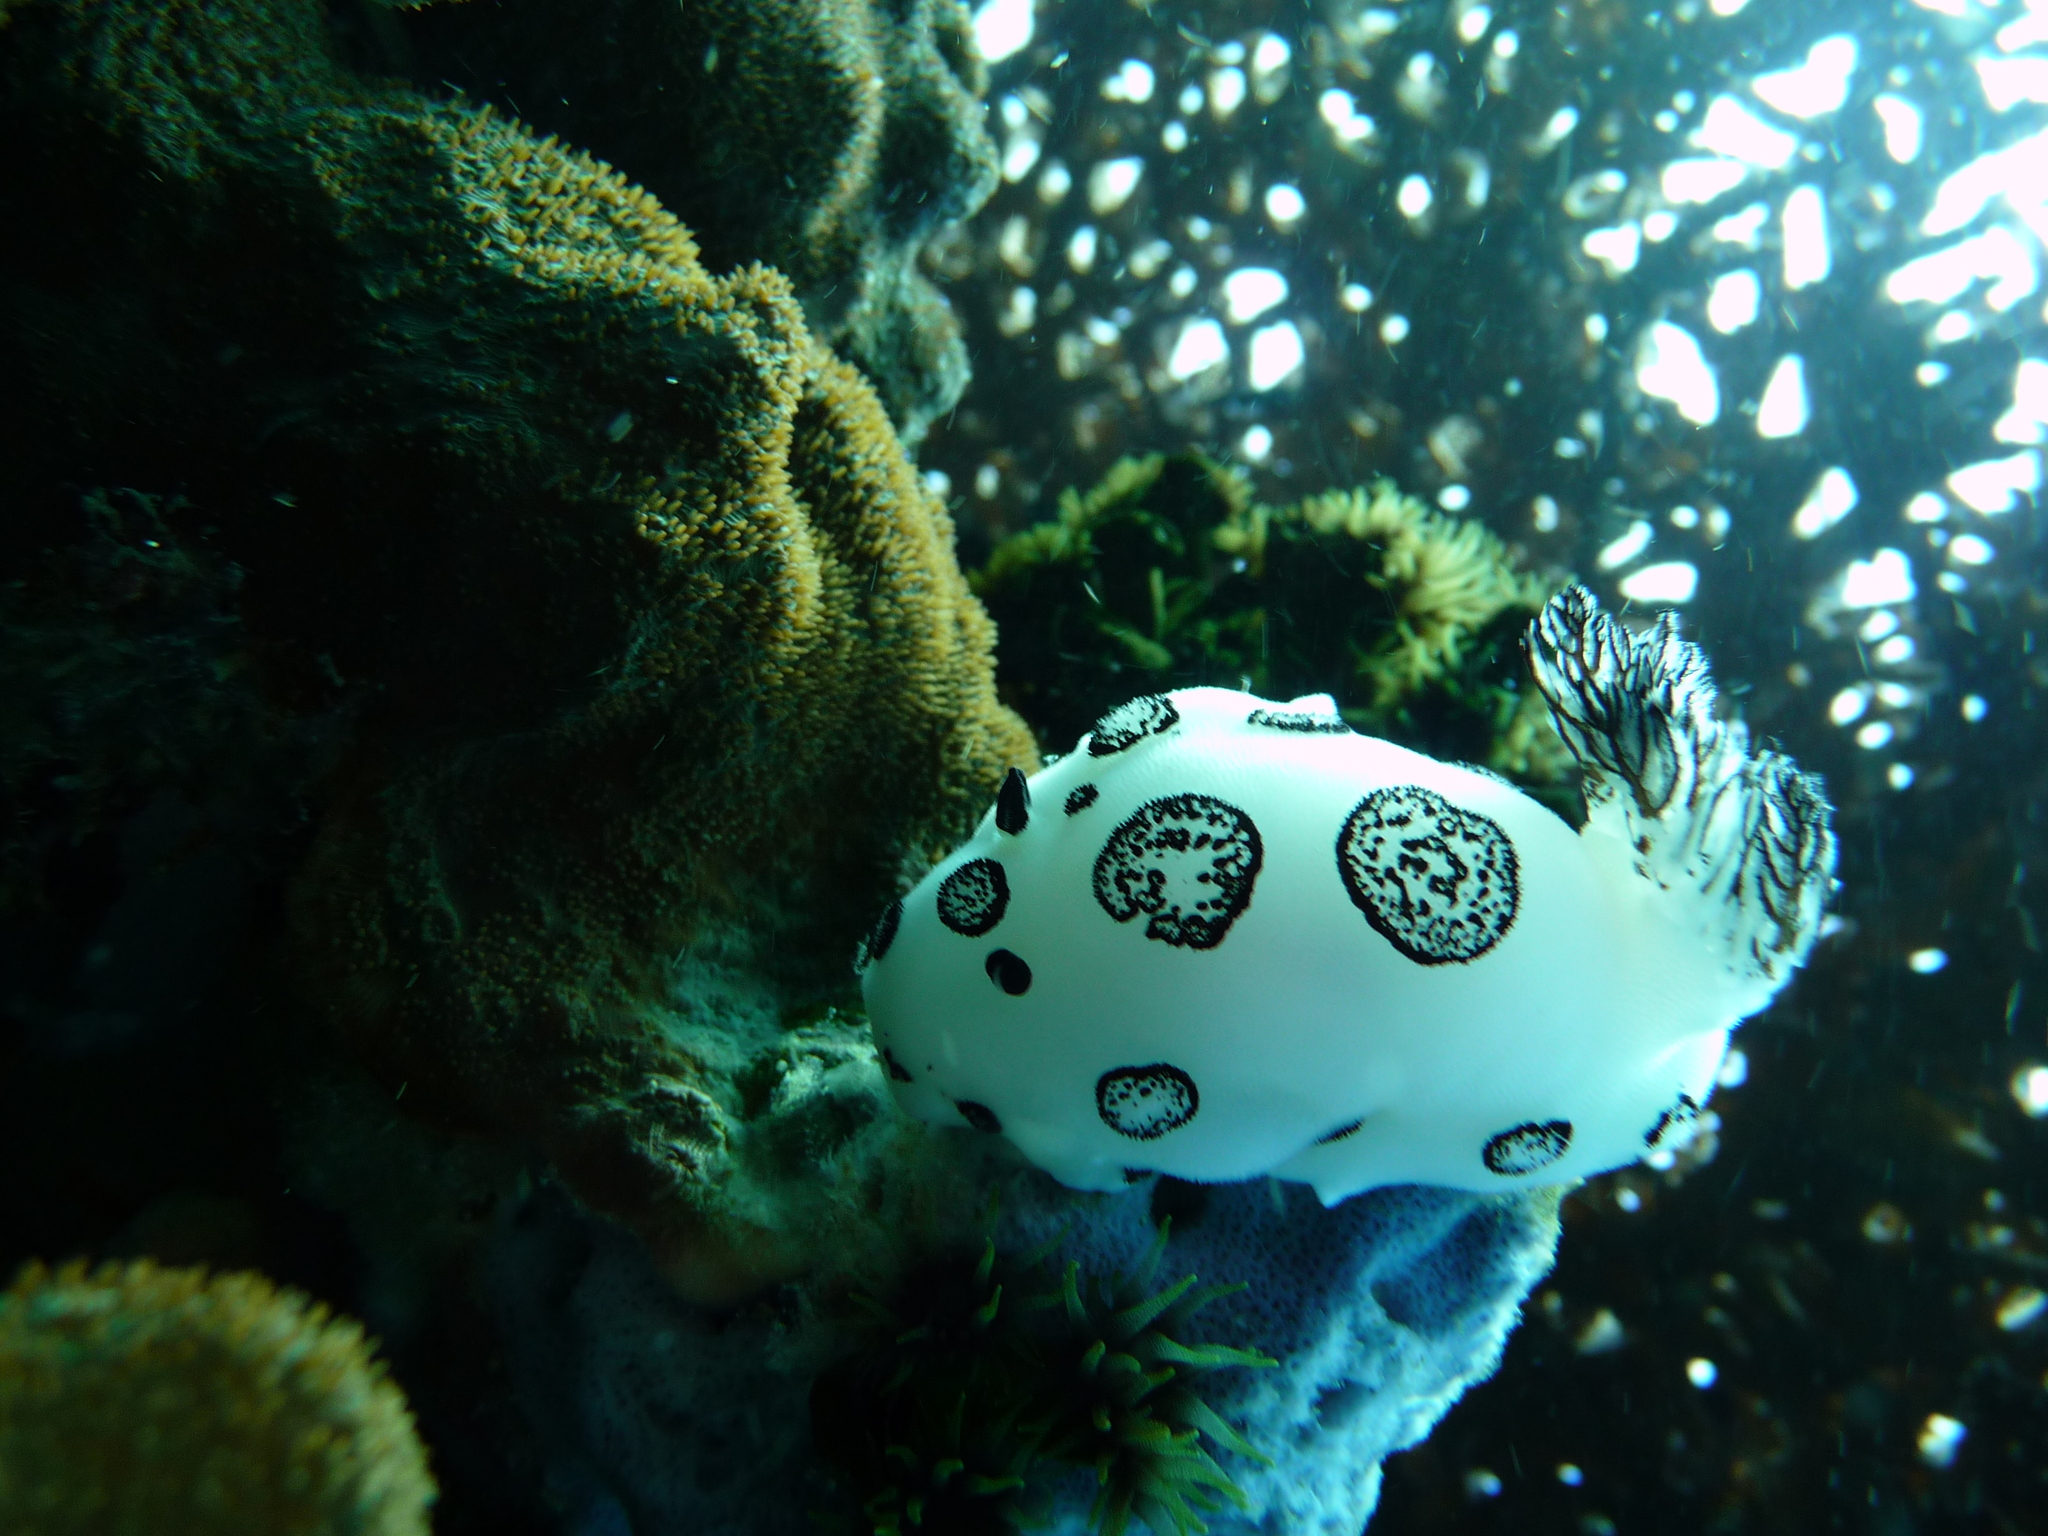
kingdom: Animalia
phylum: Mollusca
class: Gastropoda
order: Nudibranchia
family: Discodorididae
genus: Jorunna
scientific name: Jorunna funebris
